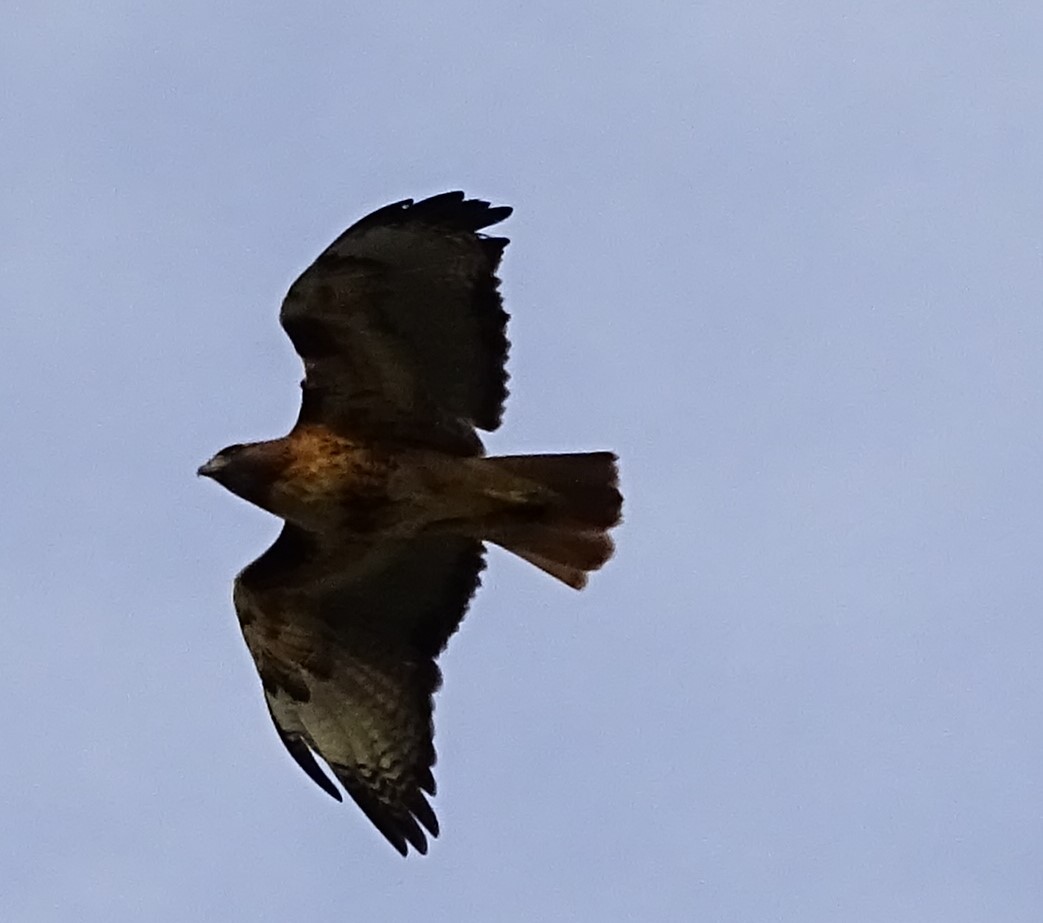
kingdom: Animalia
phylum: Chordata
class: Aves
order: Accipitriformes
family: Accipitridae
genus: Buteo
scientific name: Buteo jamaicensis
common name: Red-tailed hawk
